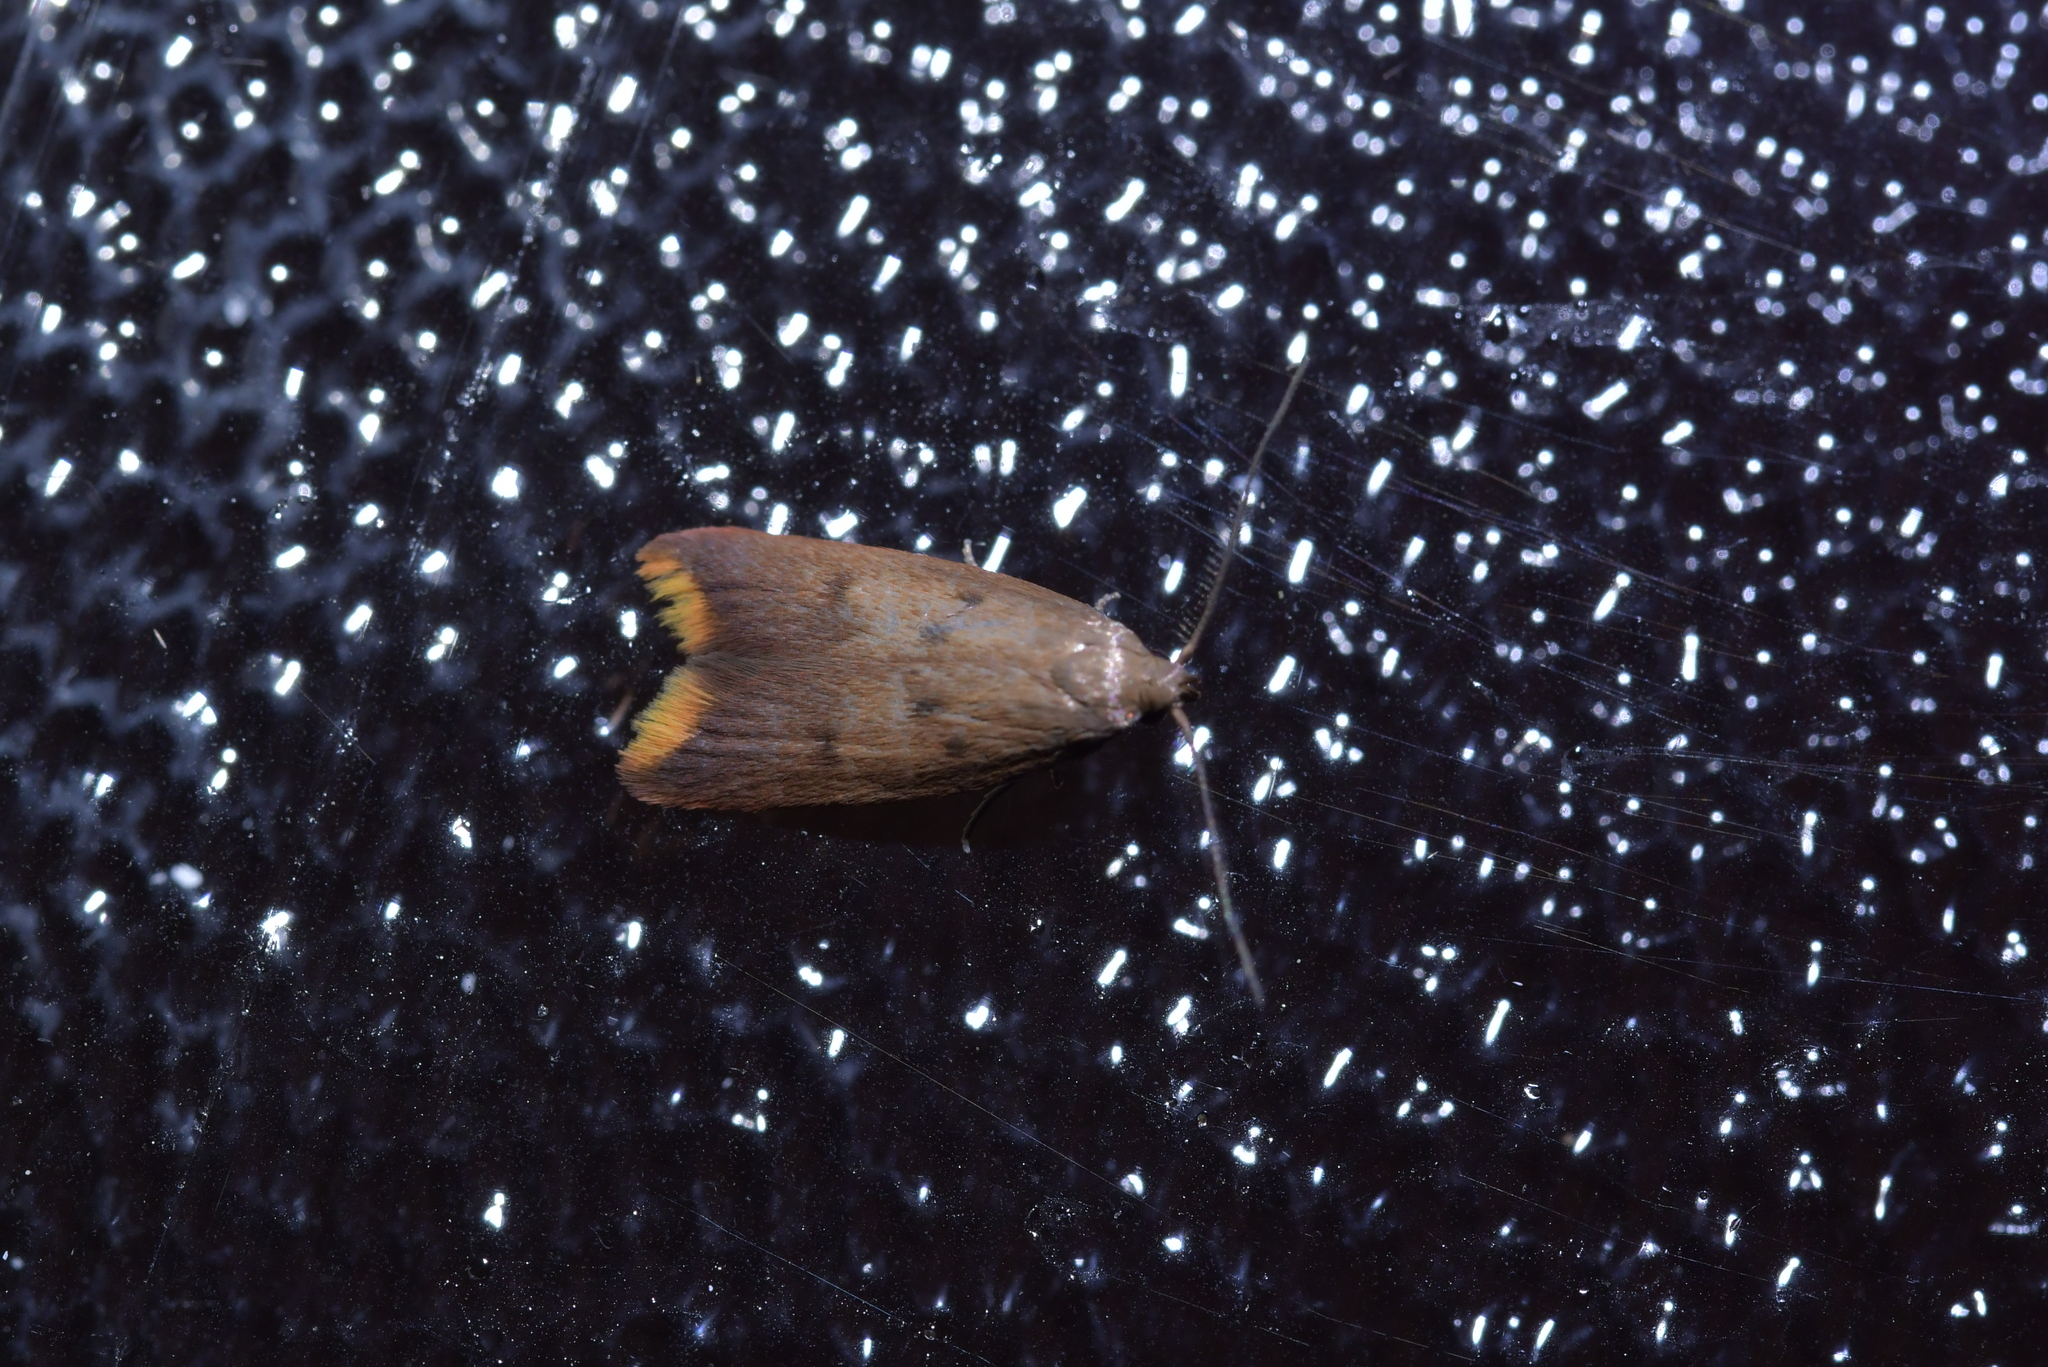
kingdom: Animalia
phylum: Arthropoda
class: Insecta
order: Lepidoptera
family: Oecophoridae
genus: Tachystola
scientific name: Tachystola acroxantha
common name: Ruddy streak
